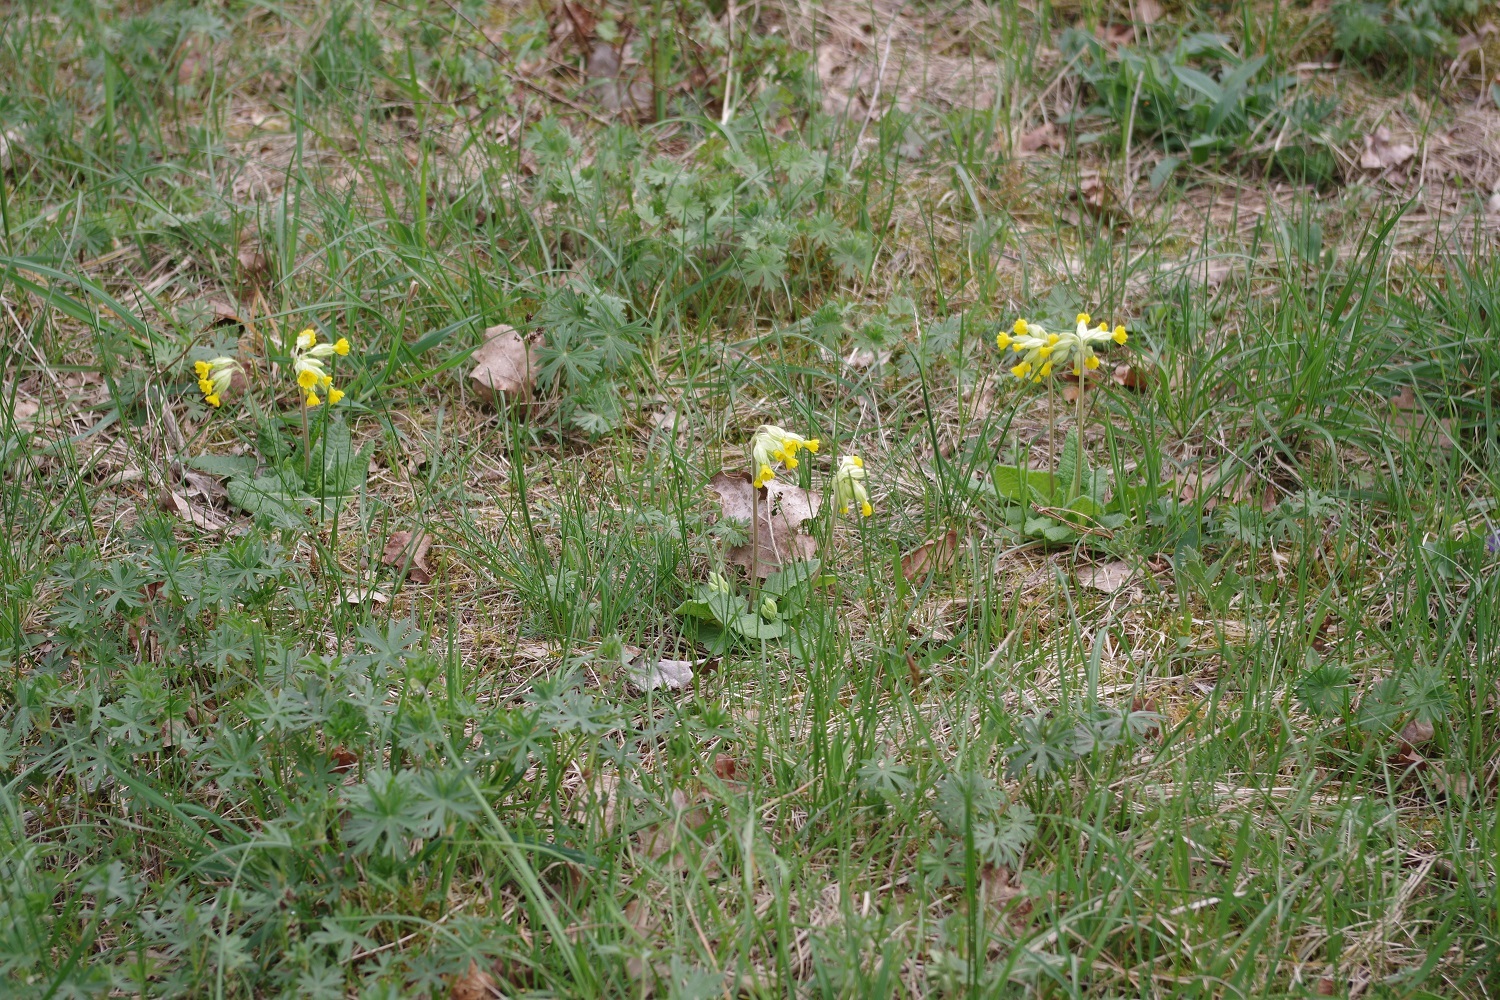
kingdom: Plantae
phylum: Tracheophyta
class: Magnoliopsida
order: Ericales
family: Primulaceae
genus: Primula
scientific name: Primula veris
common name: Cowslip
